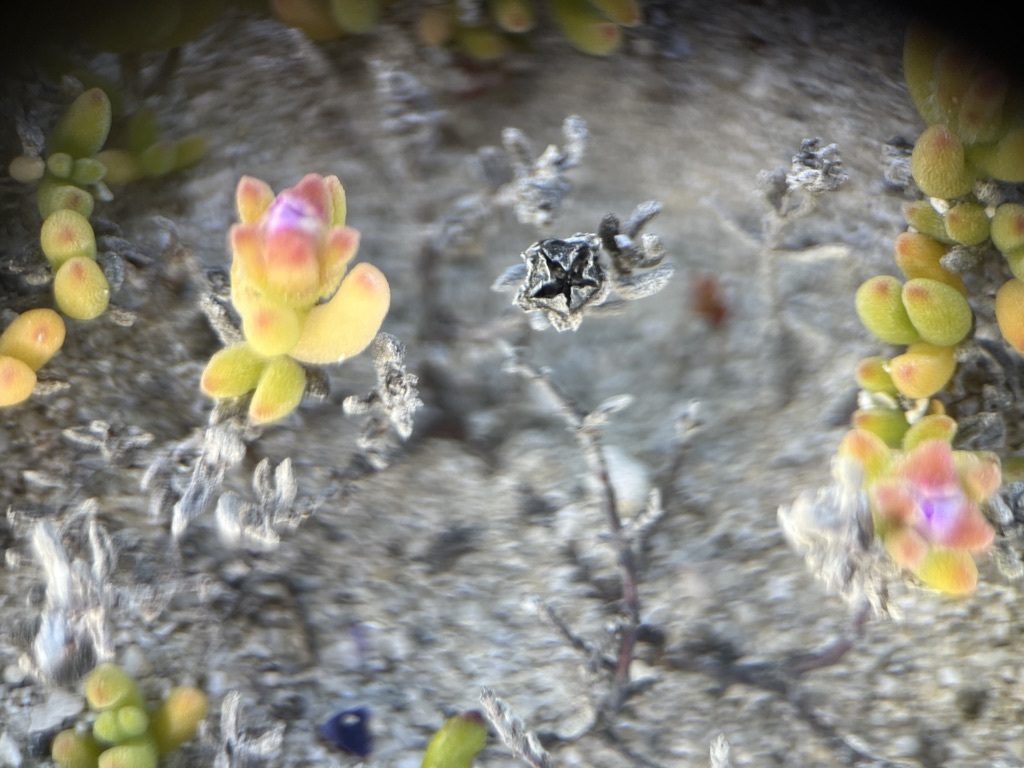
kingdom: Plantae
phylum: Tracheophyta
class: Magnoliopsida
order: Caryophyllales
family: Aizoaceae
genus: Drosanthemum
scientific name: Drosanthemum candens
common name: Rodondo-creeper
